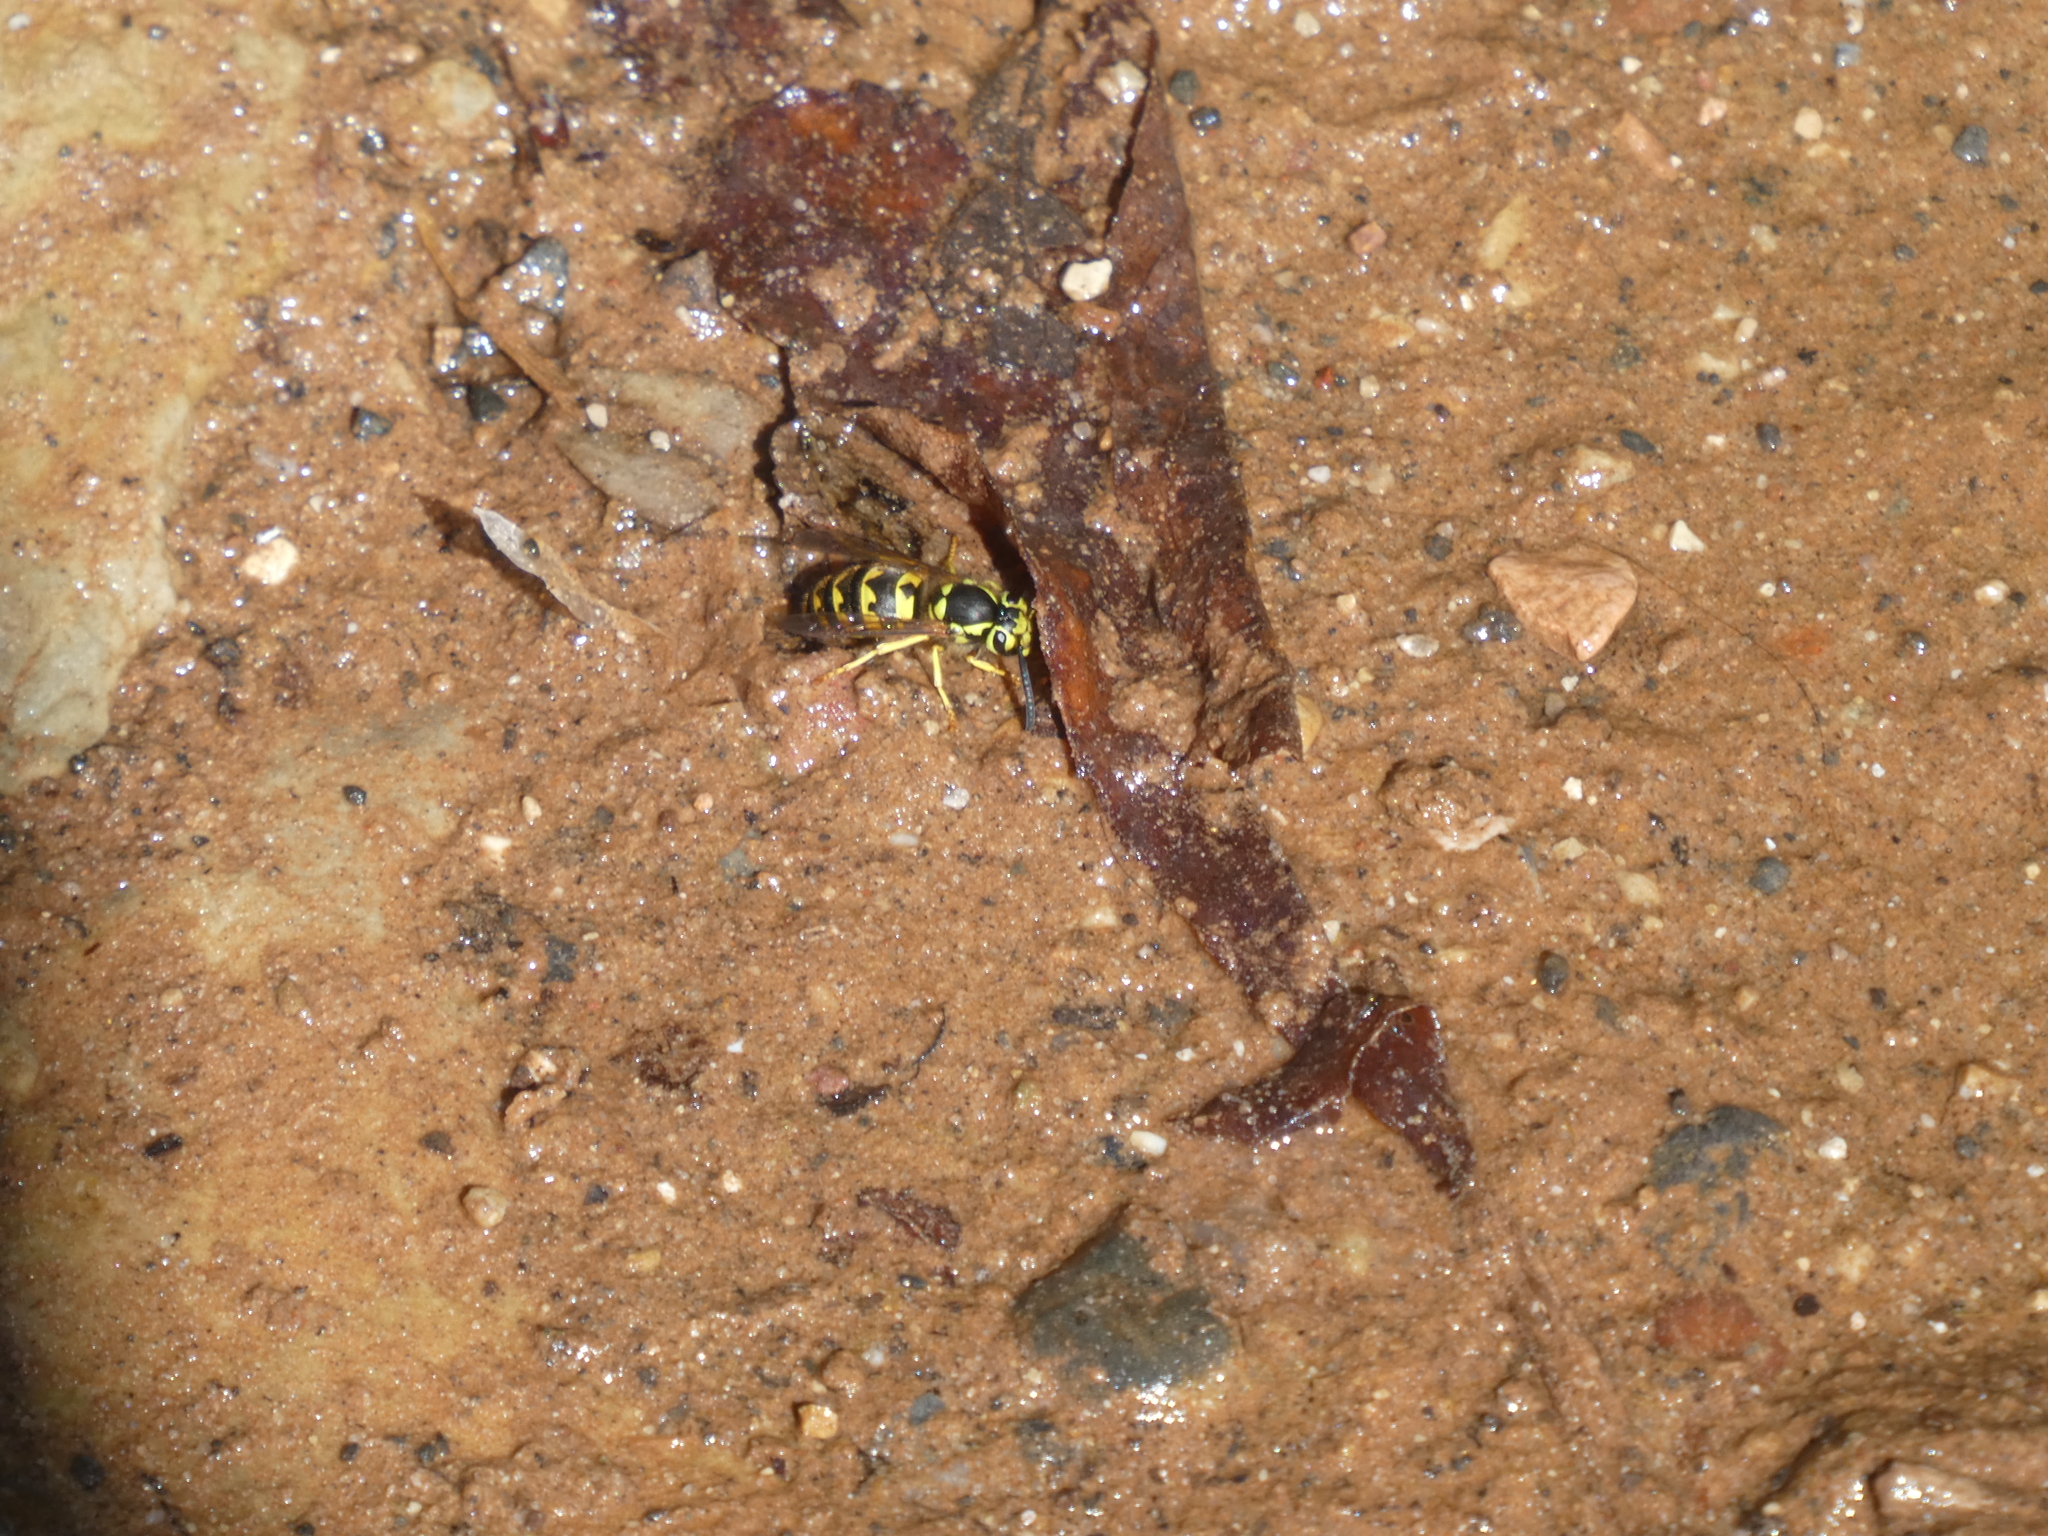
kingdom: Animalia
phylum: Arthropoda
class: Insecta
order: Hymenoptera
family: Vespidae
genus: Vespula
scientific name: Vespula pensylvanica
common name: Western yellowjacket
